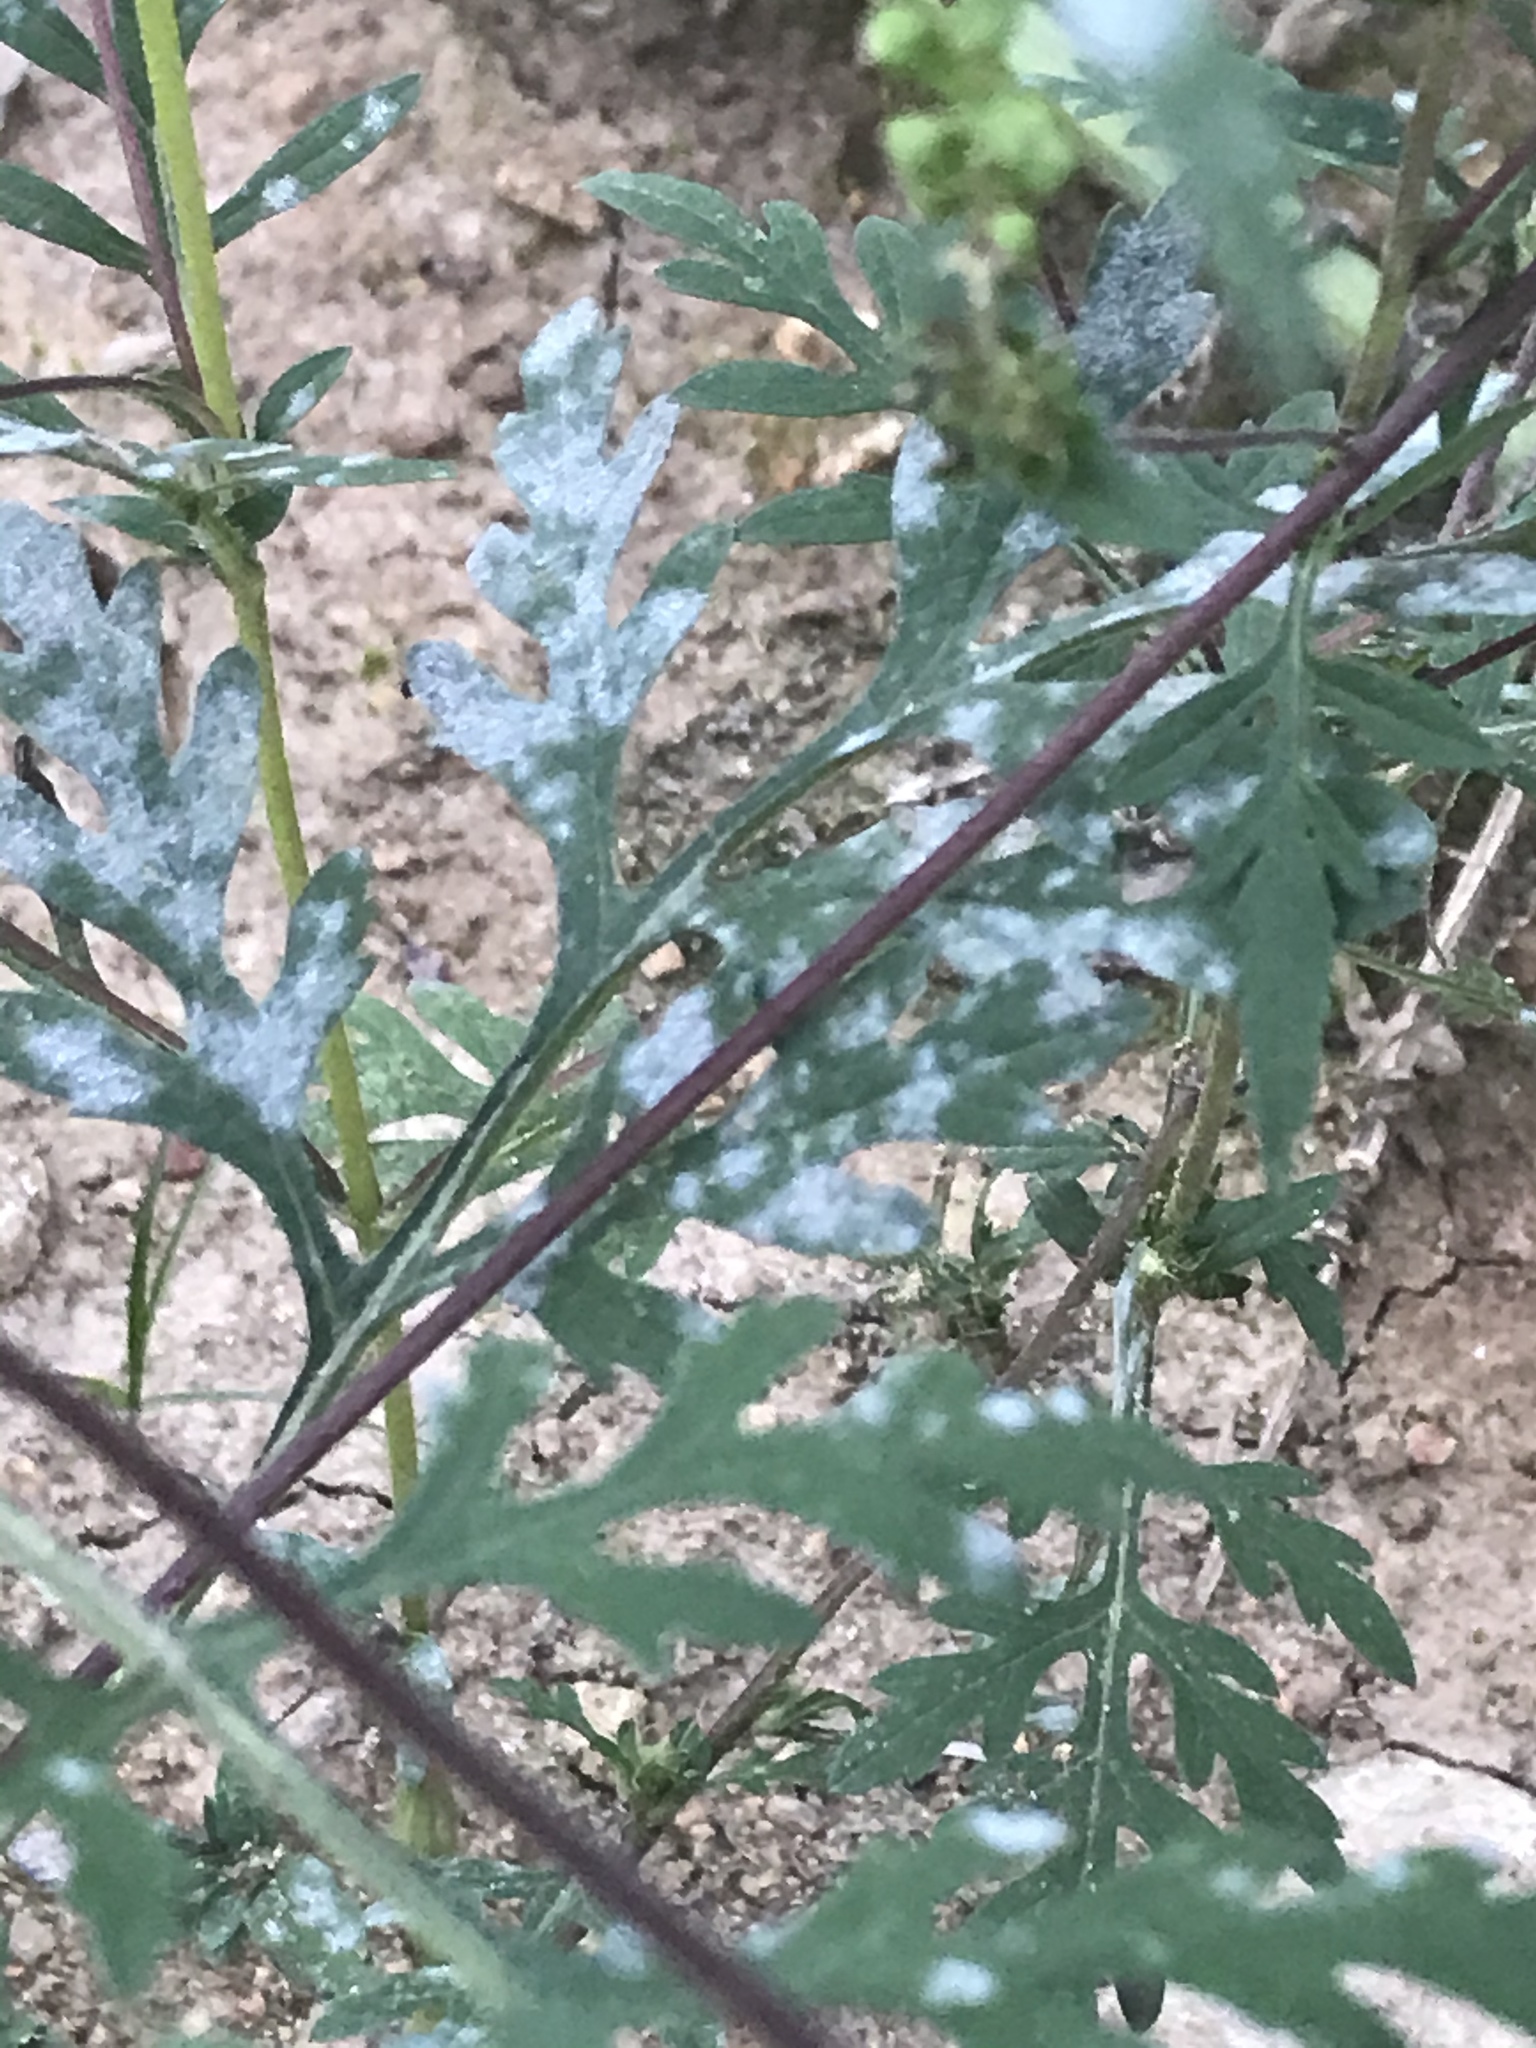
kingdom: Plantae
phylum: Tracheophyta
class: Magnoliopsida
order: Asterales
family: Asteraceae
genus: Ambrosia
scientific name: Ambrosia artemisiifolia
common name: Annual ragweed
